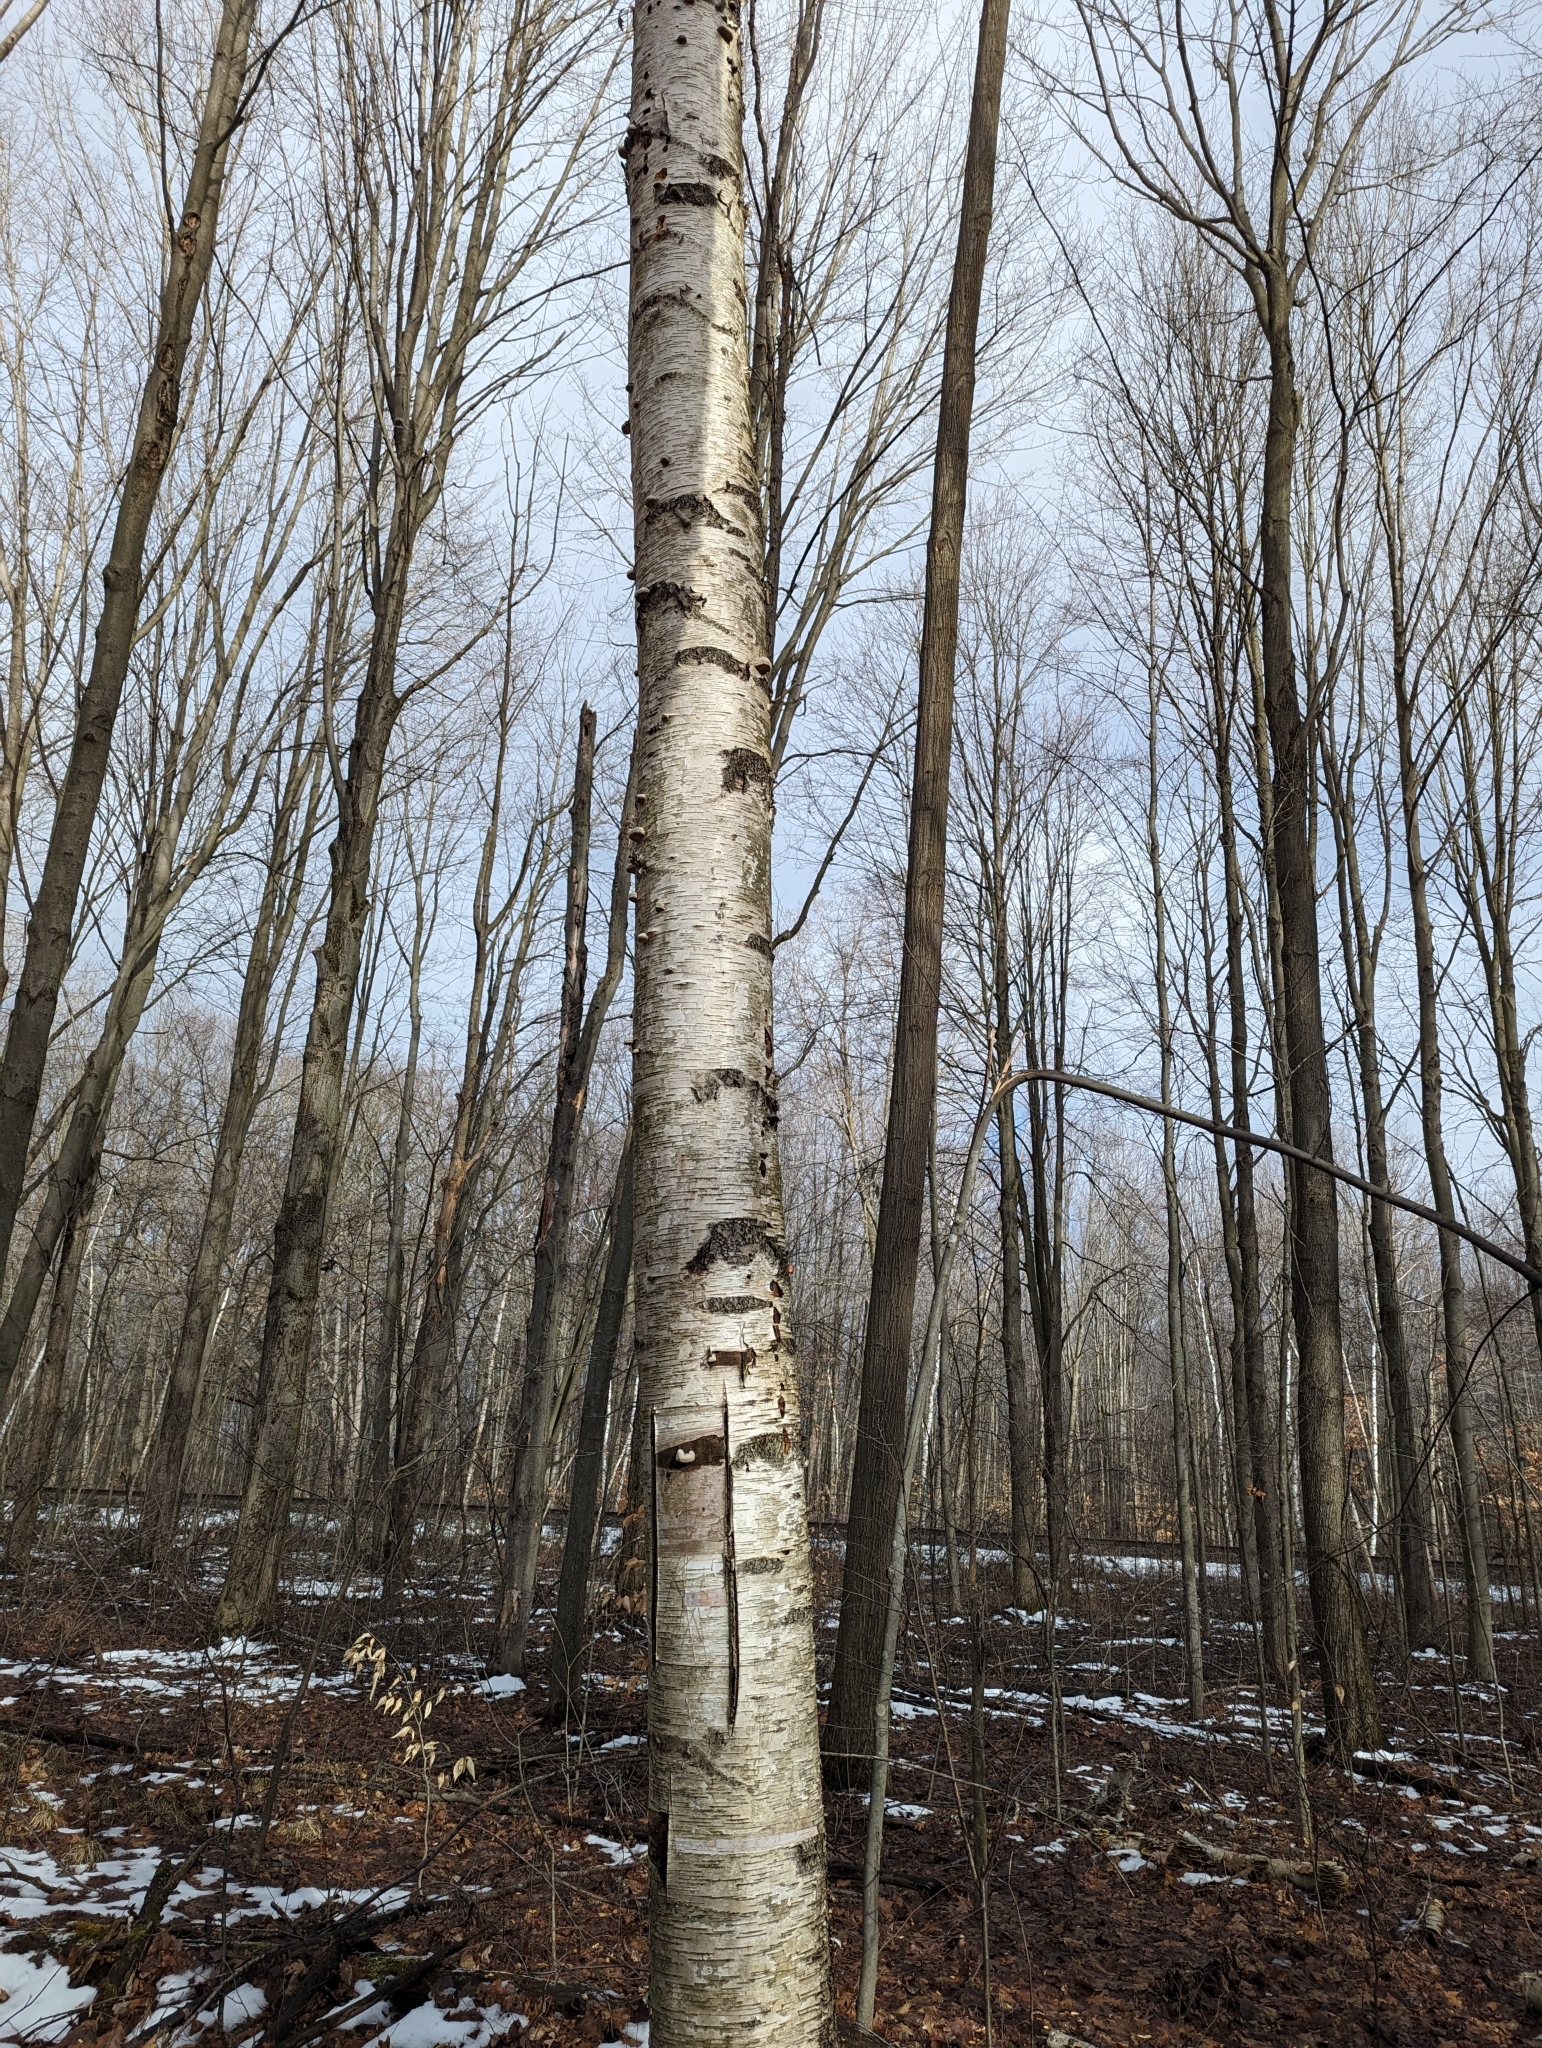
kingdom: Plantae
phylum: Tracheophyta
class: Magnoliopsida
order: Fagales
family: Betulaceae
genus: Betula
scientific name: Betula papyrifera
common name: Paper birch
